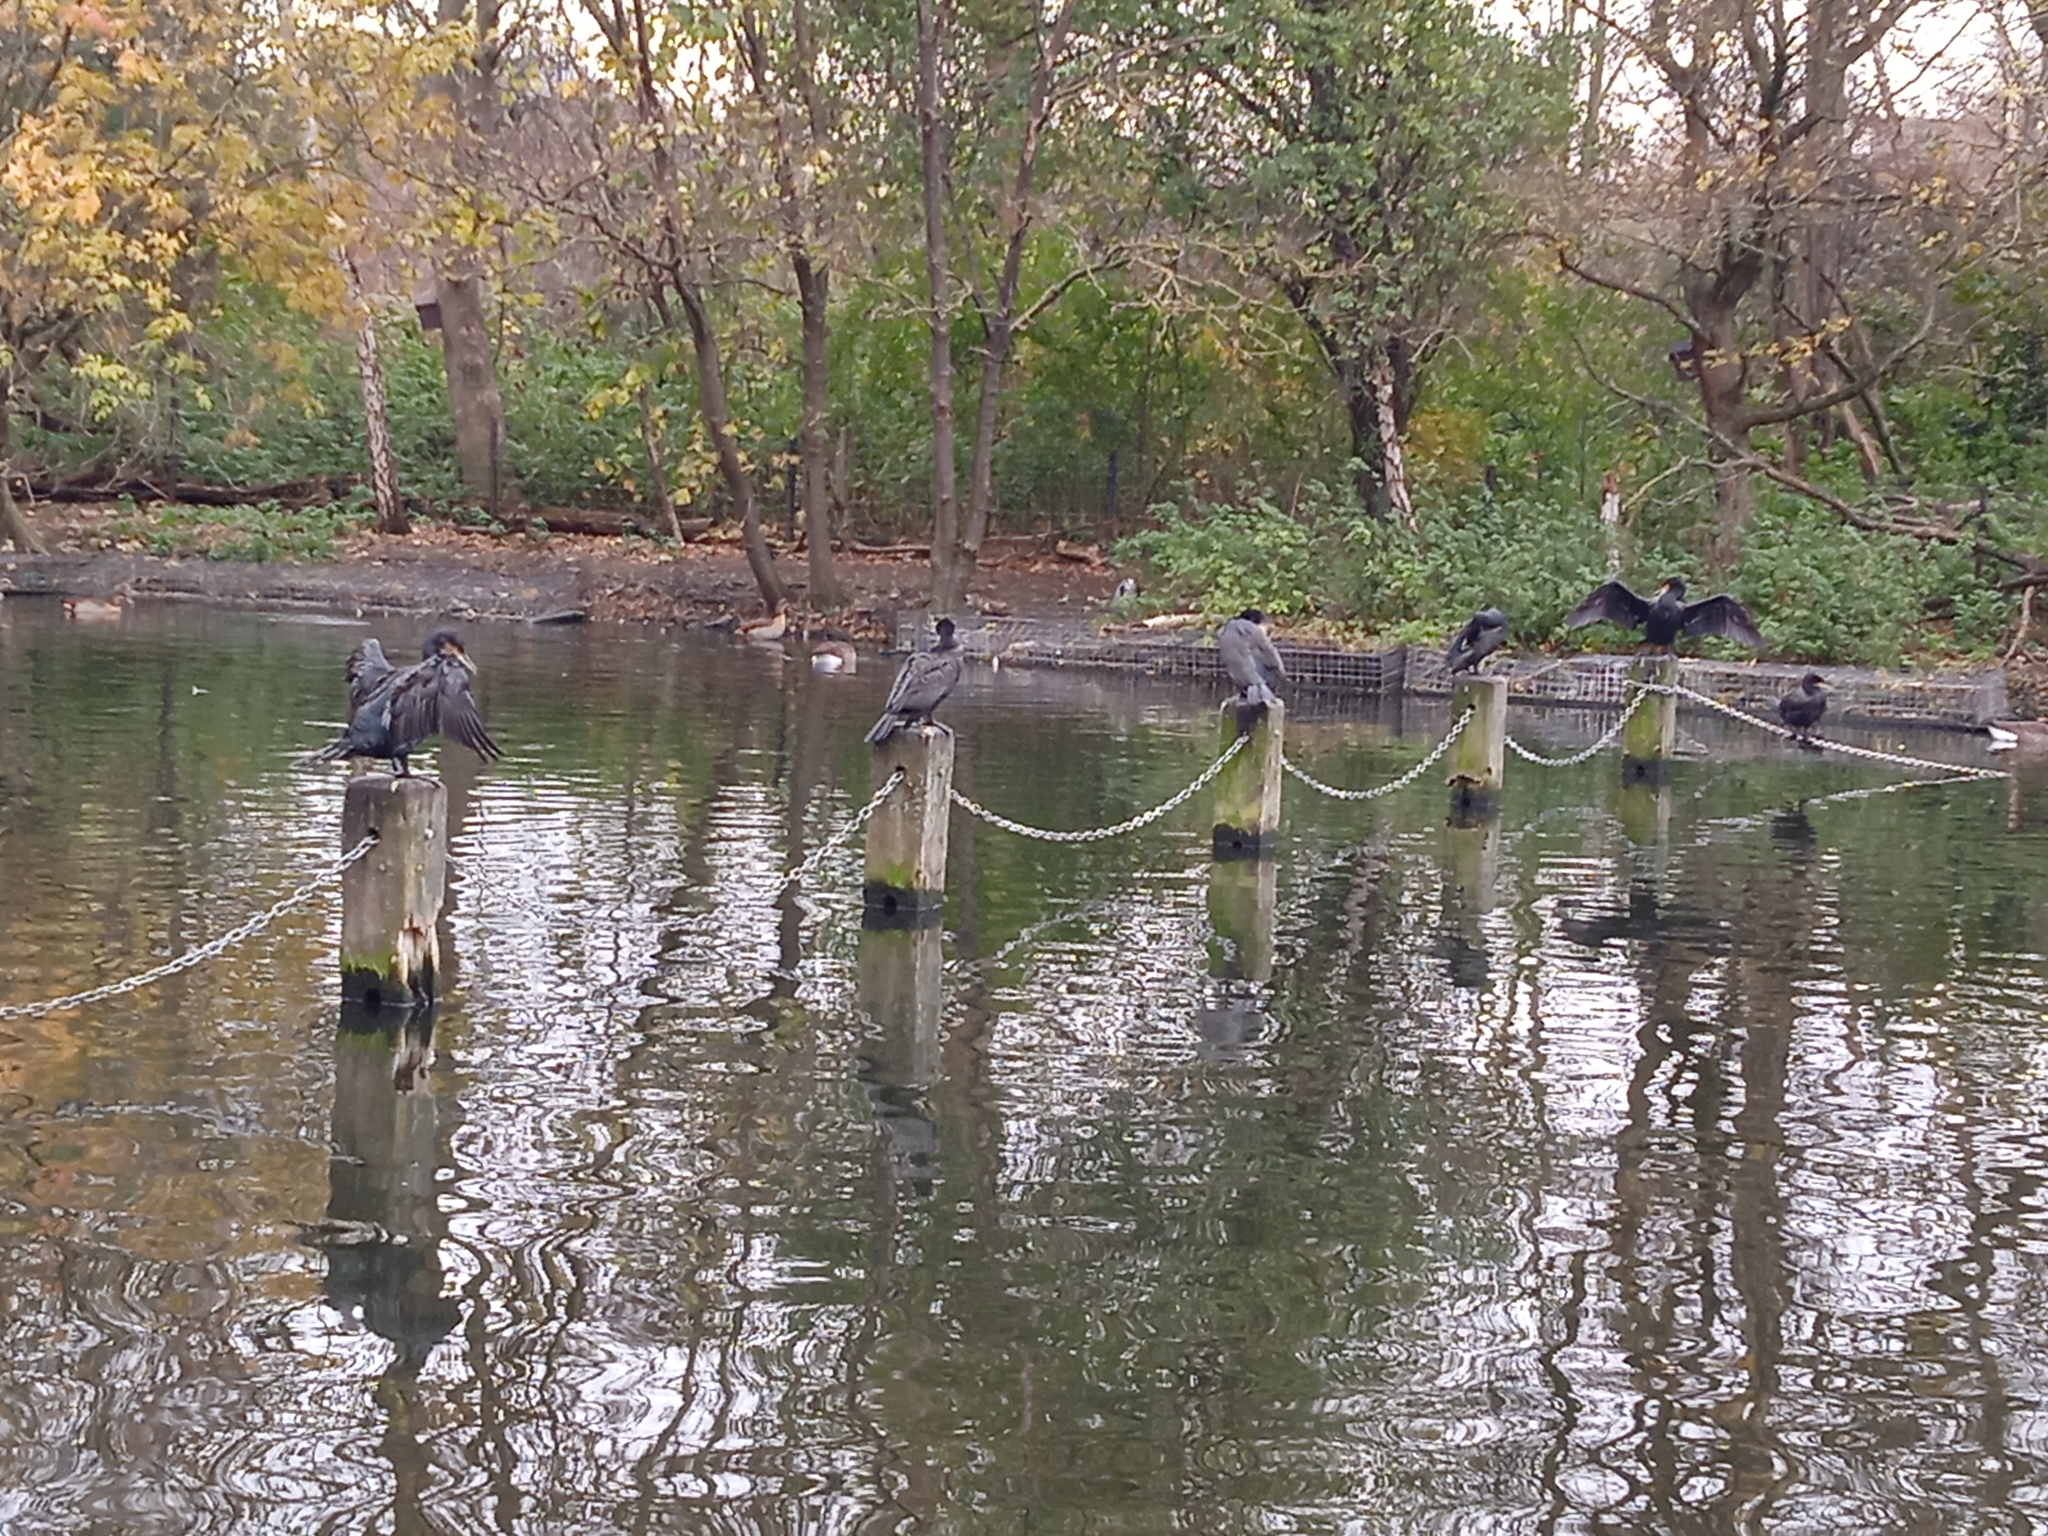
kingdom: Animalia
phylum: Chordata
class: Aves
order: Suliformes
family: Phalacrocoracidae
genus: Phalacrocorax
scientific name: Phalacrocorax carbo
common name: Great cormorant
